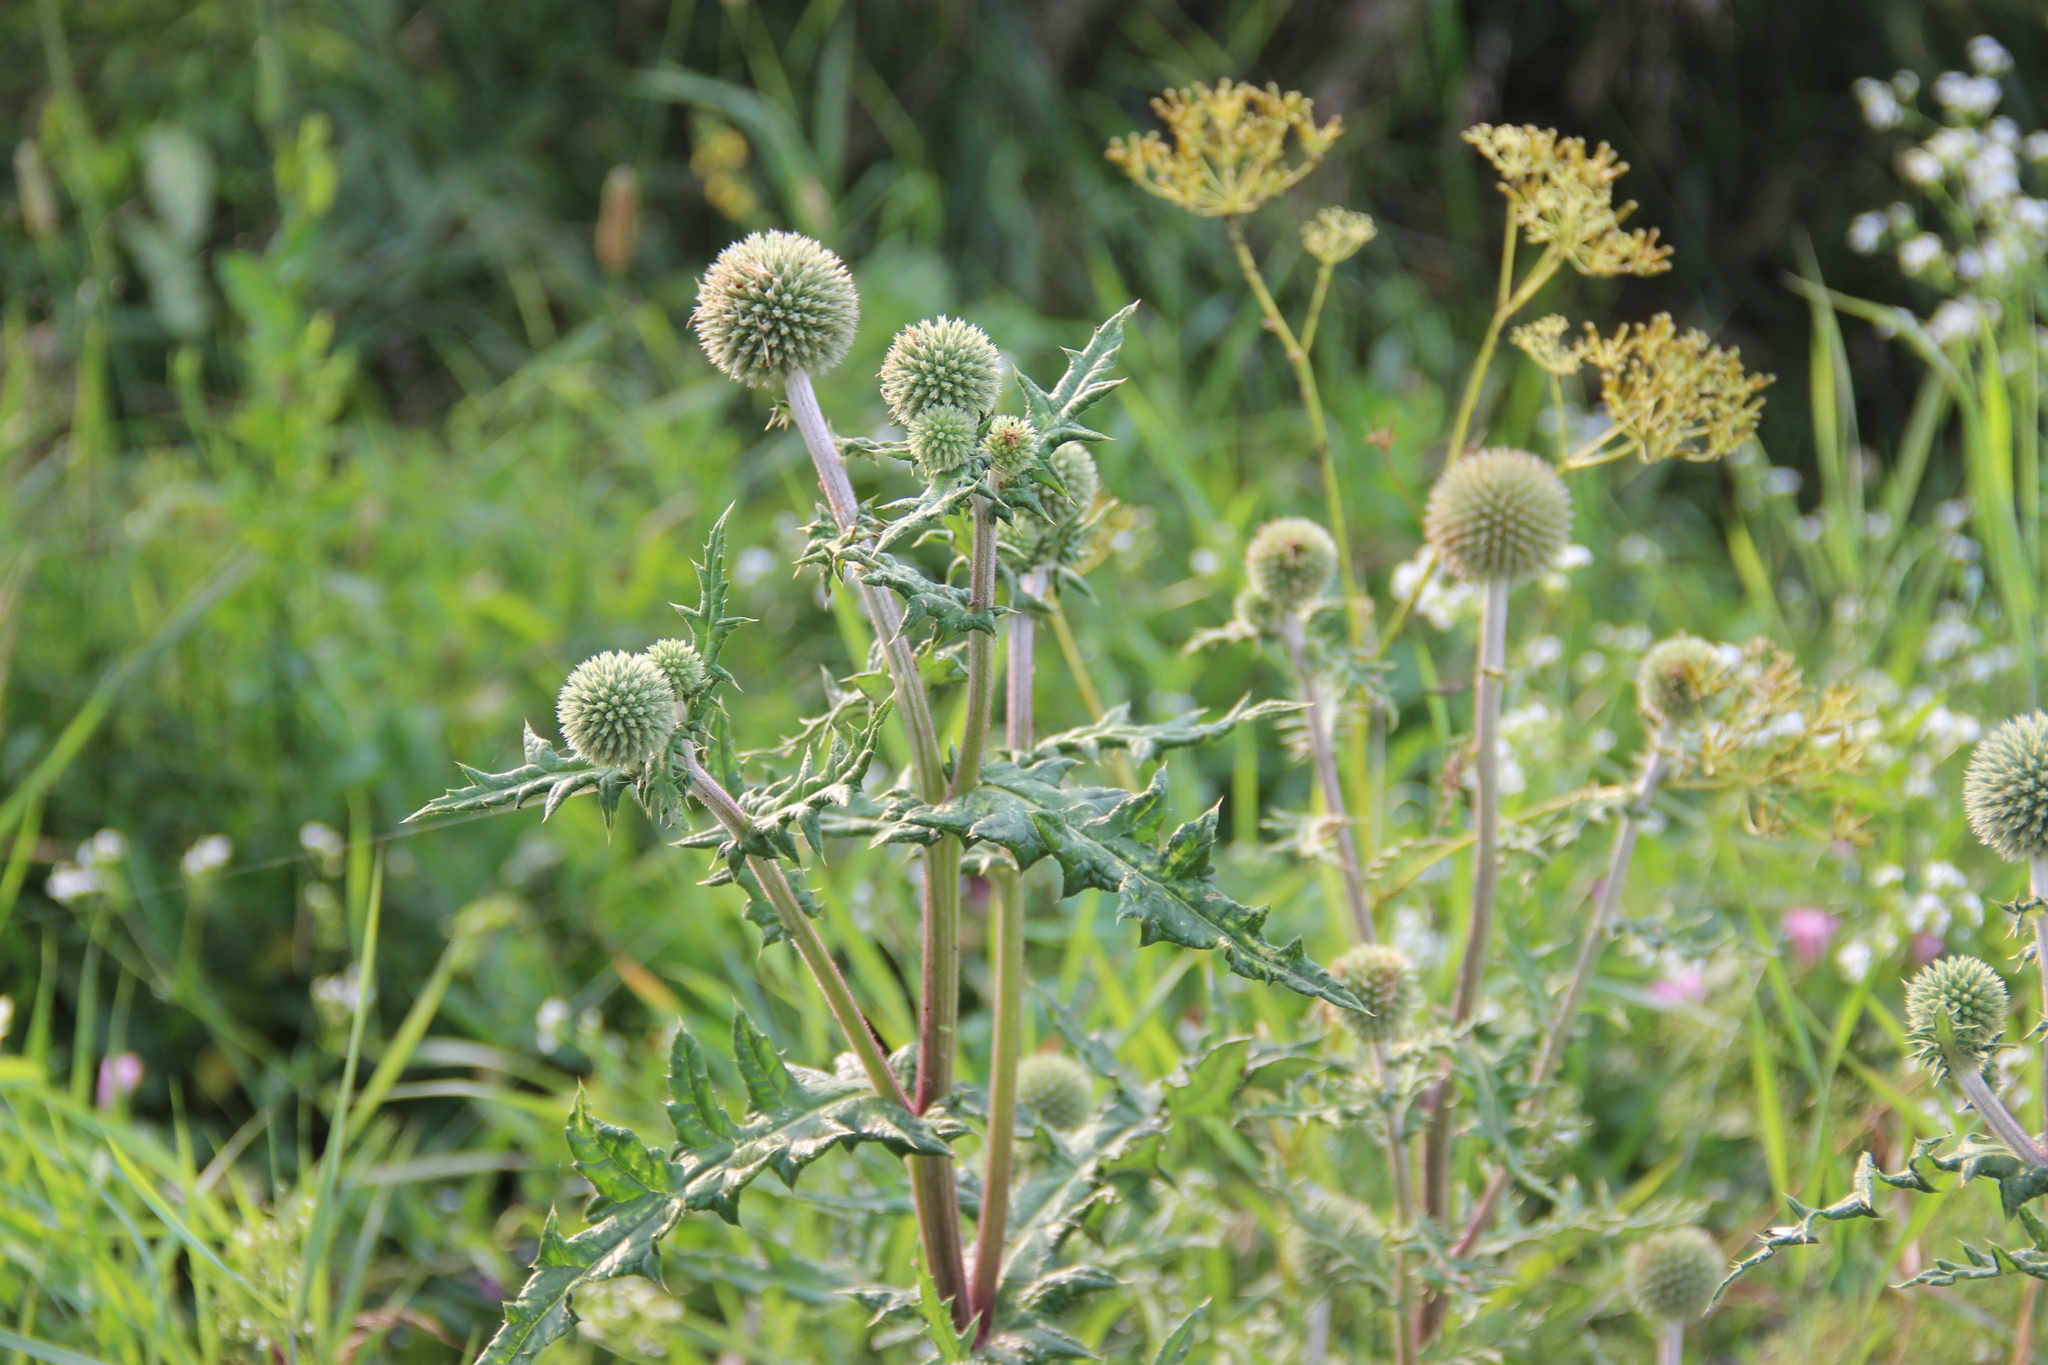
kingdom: Plantae
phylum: Tracheophyta
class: Magnoliopsida
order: Asterales
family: Asteraceae
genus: Echinops
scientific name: Echinops sphaerocephalus
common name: Glandular globe-thistle
